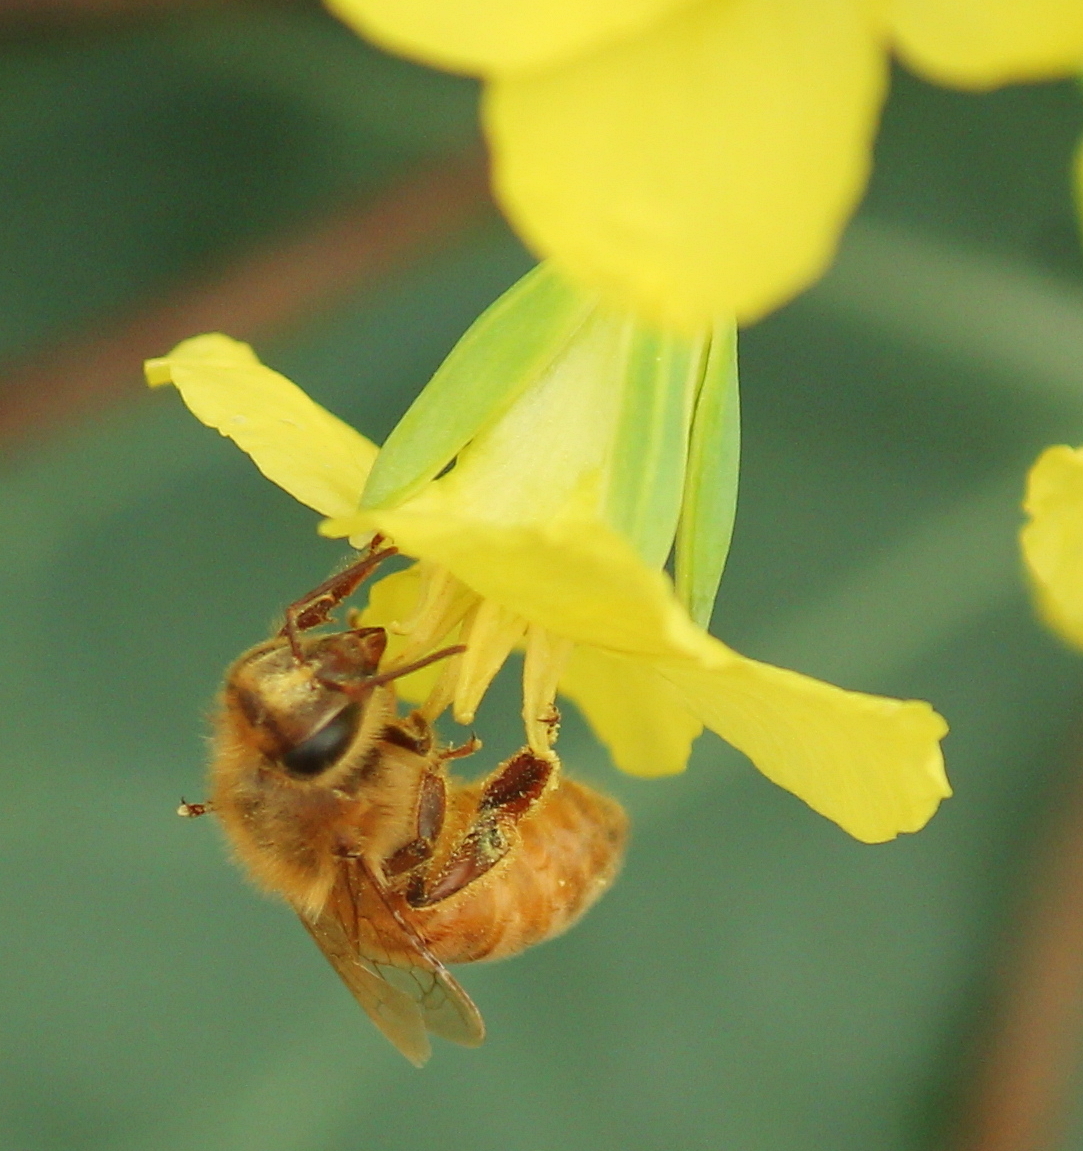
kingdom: Animalia
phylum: Arthropoda
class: Insecta
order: Hymenoptera
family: Apidae
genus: Apis
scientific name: Apis mellifera
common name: Honey bee
